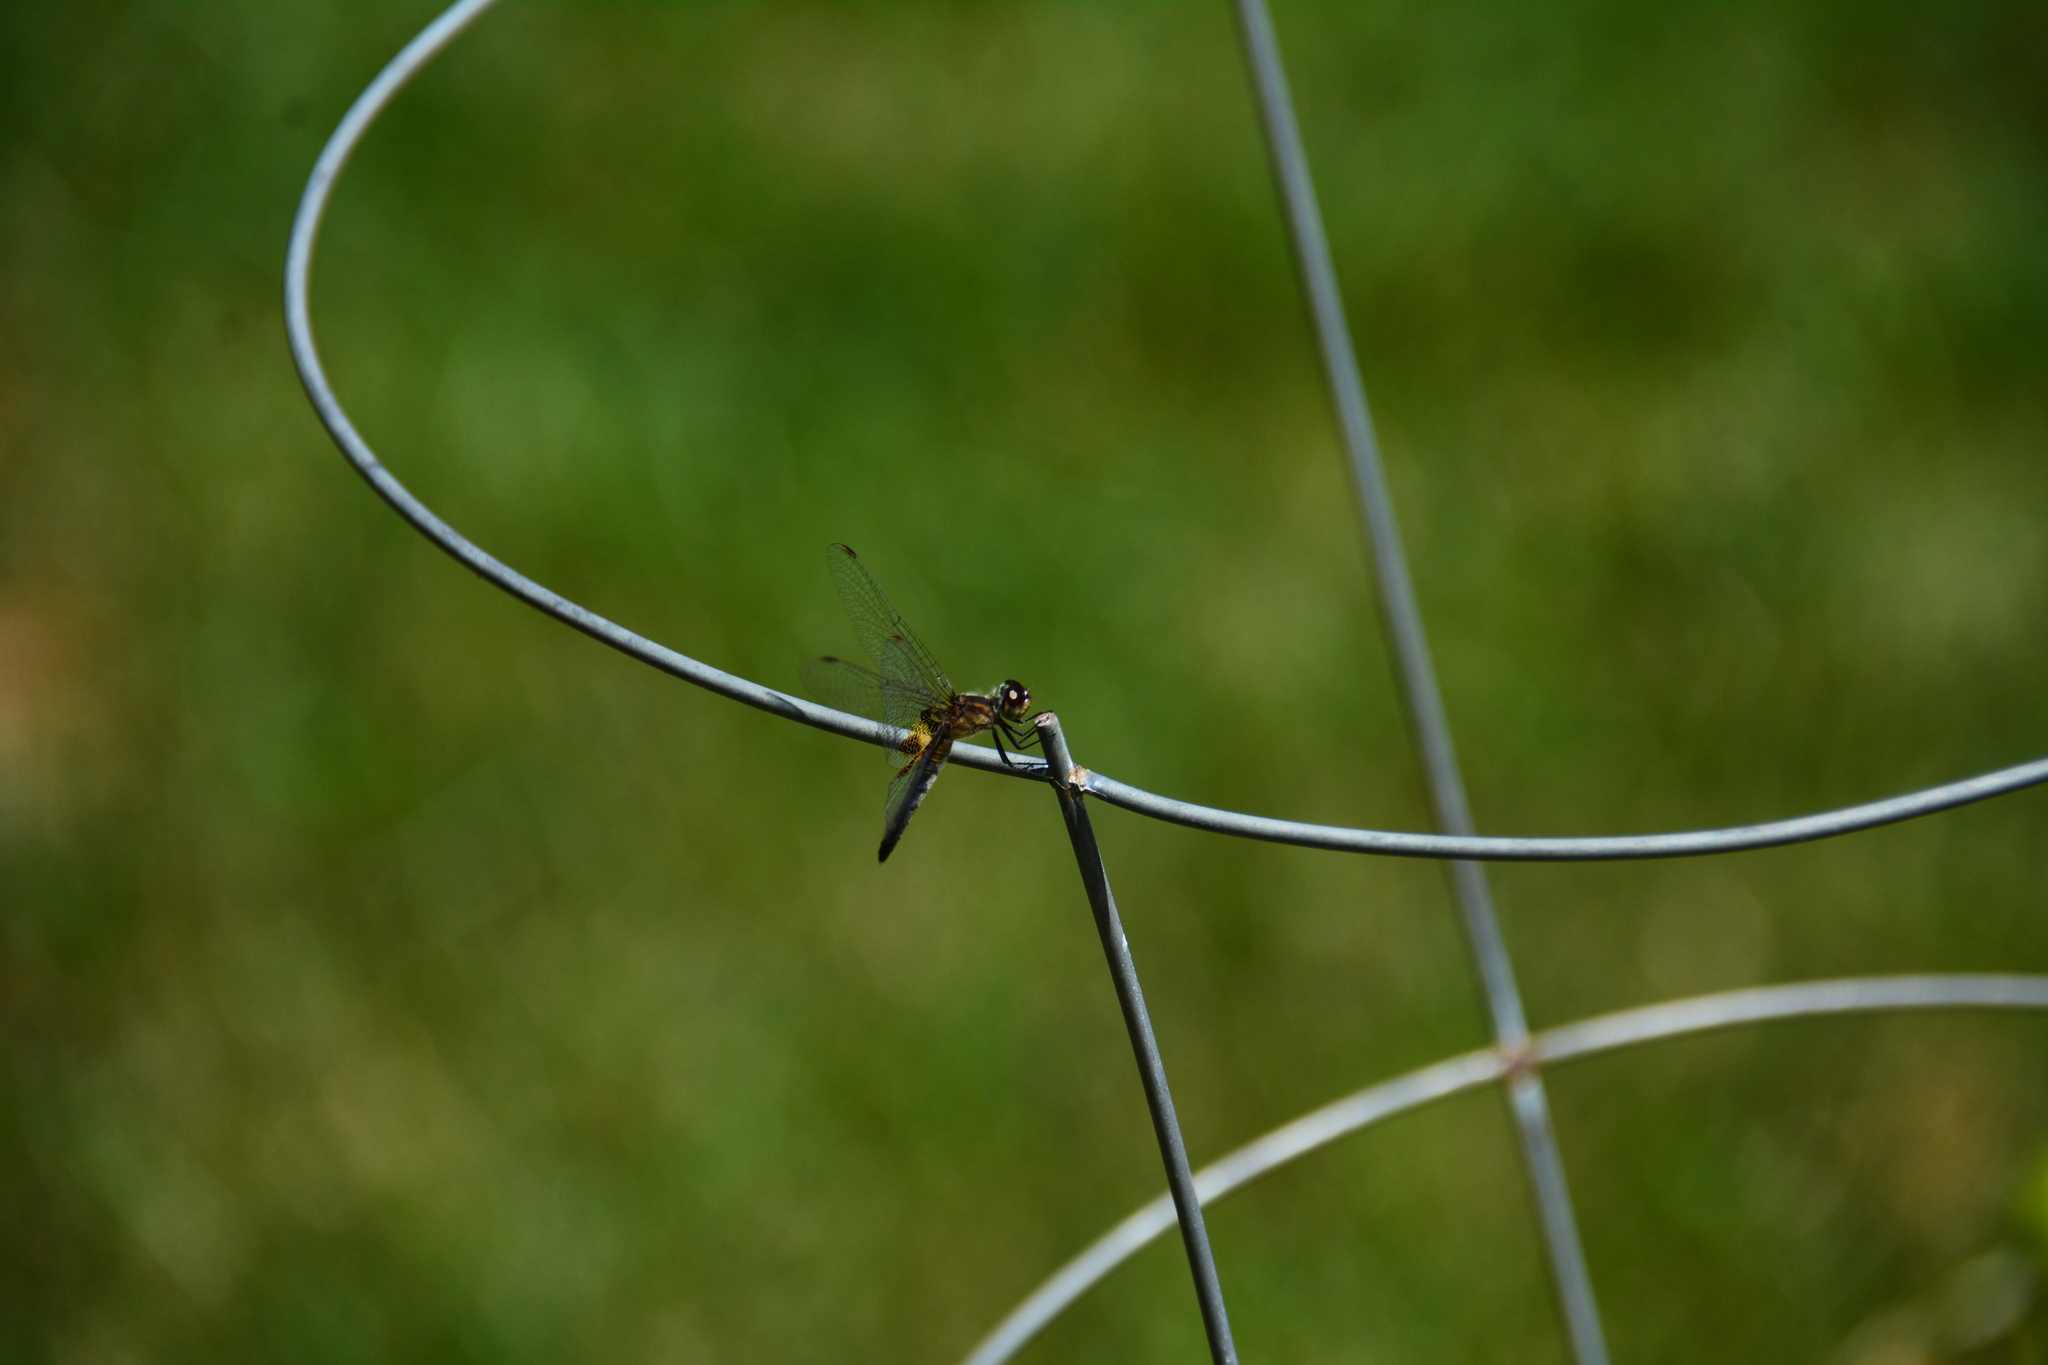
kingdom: Animalia
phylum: Arthropoda
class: Insecta
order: Odonata
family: Libellulidae
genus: Celithemis
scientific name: Celithemis martha
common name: Martha's pennant
